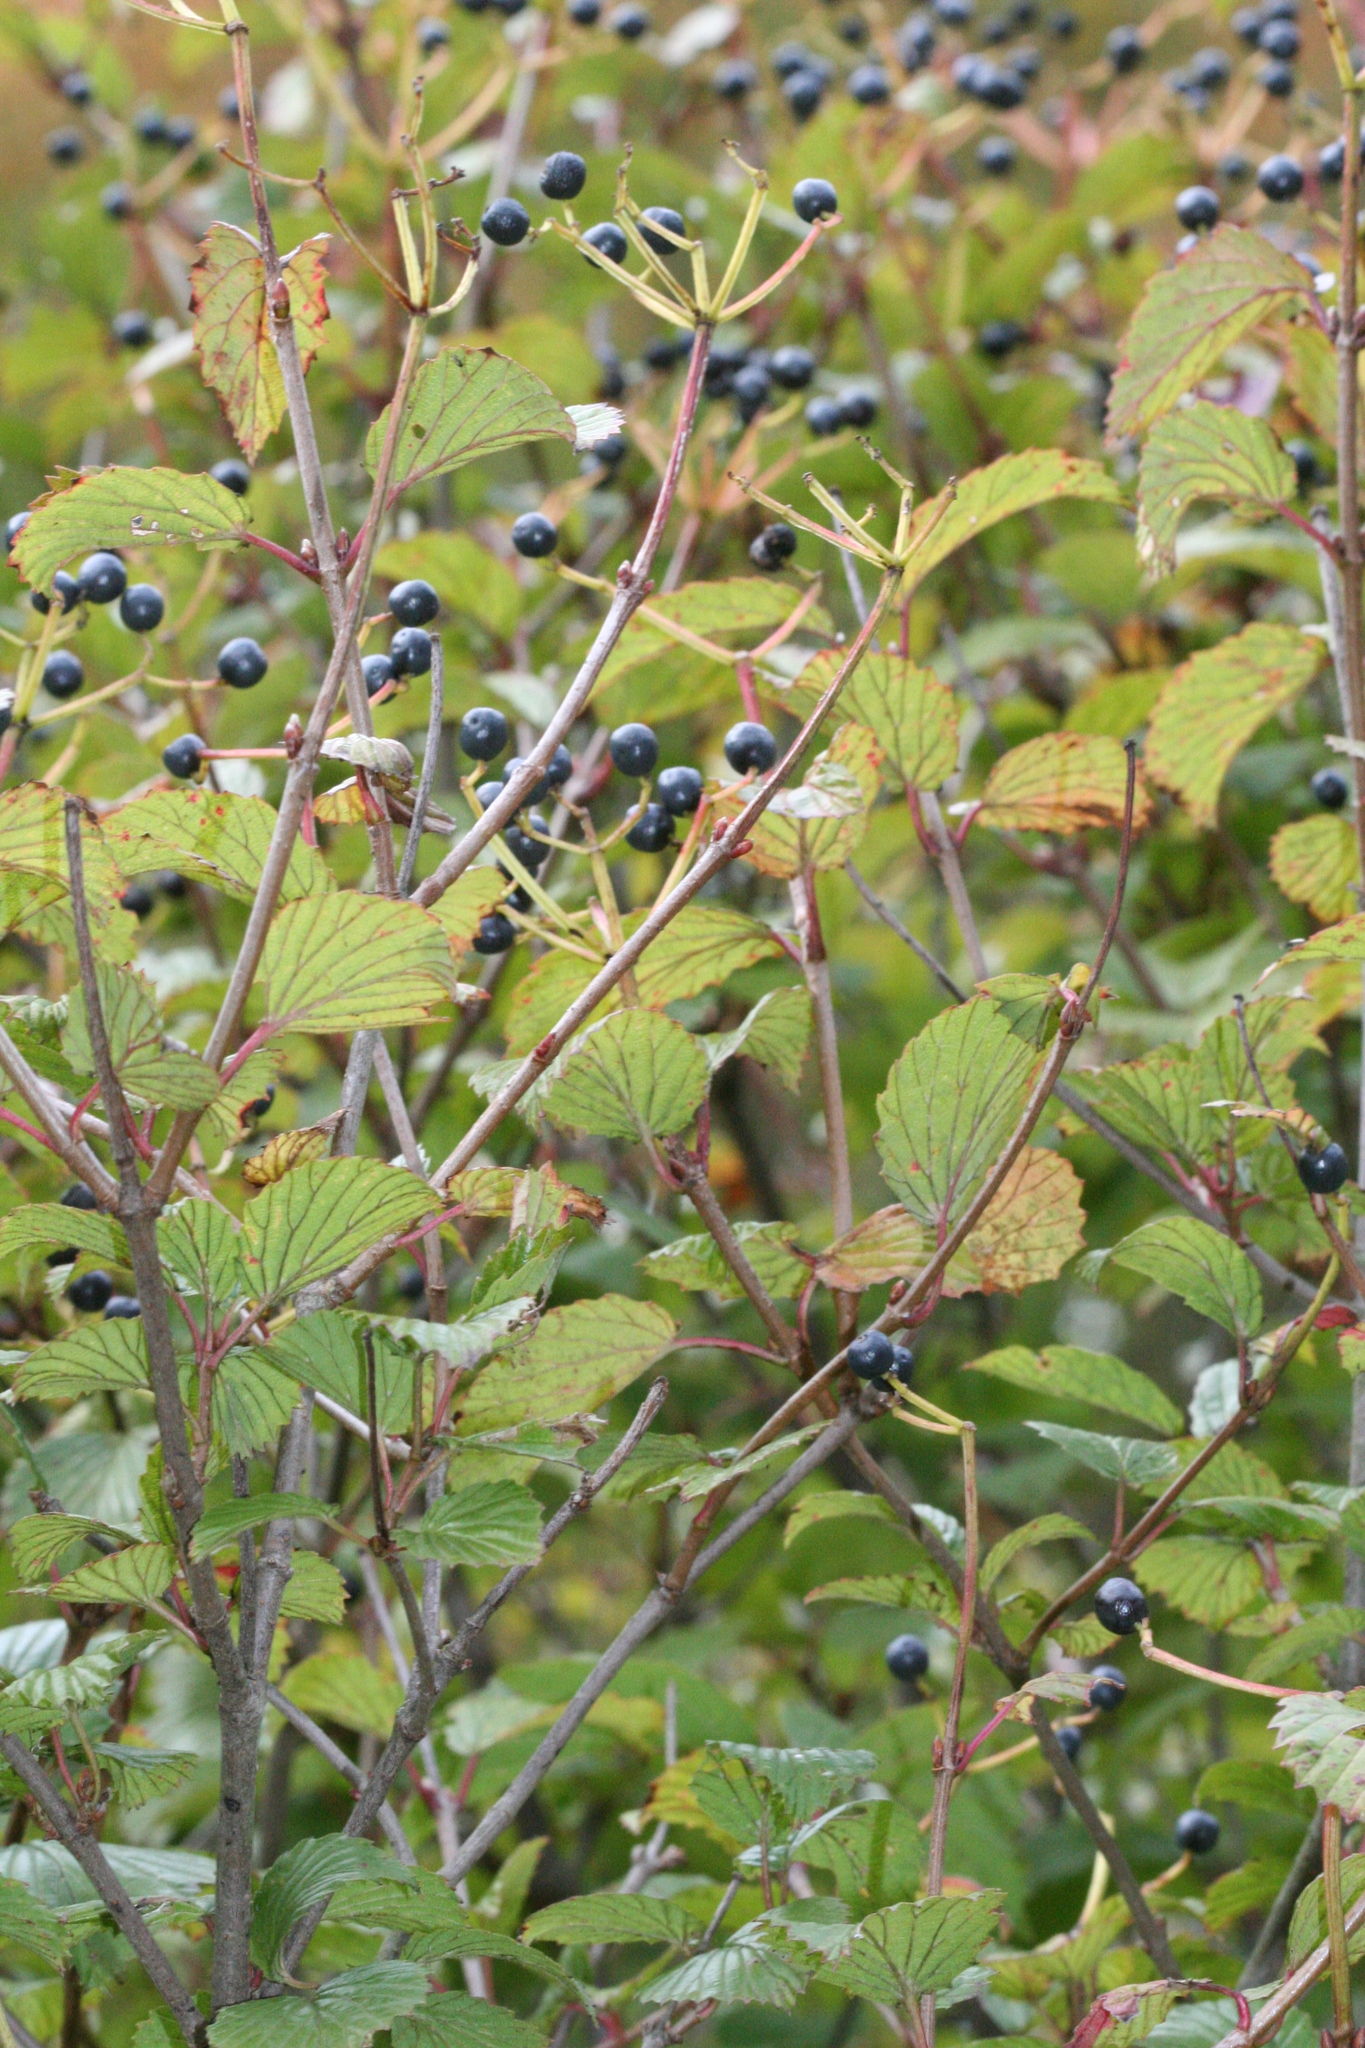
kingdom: Plantae
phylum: Tracheophyta
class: Magnoliopsida
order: Dipsacales
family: Viburnaceae
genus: Viburnum
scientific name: Viburnum recognitum
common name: Northern arrow-wood
